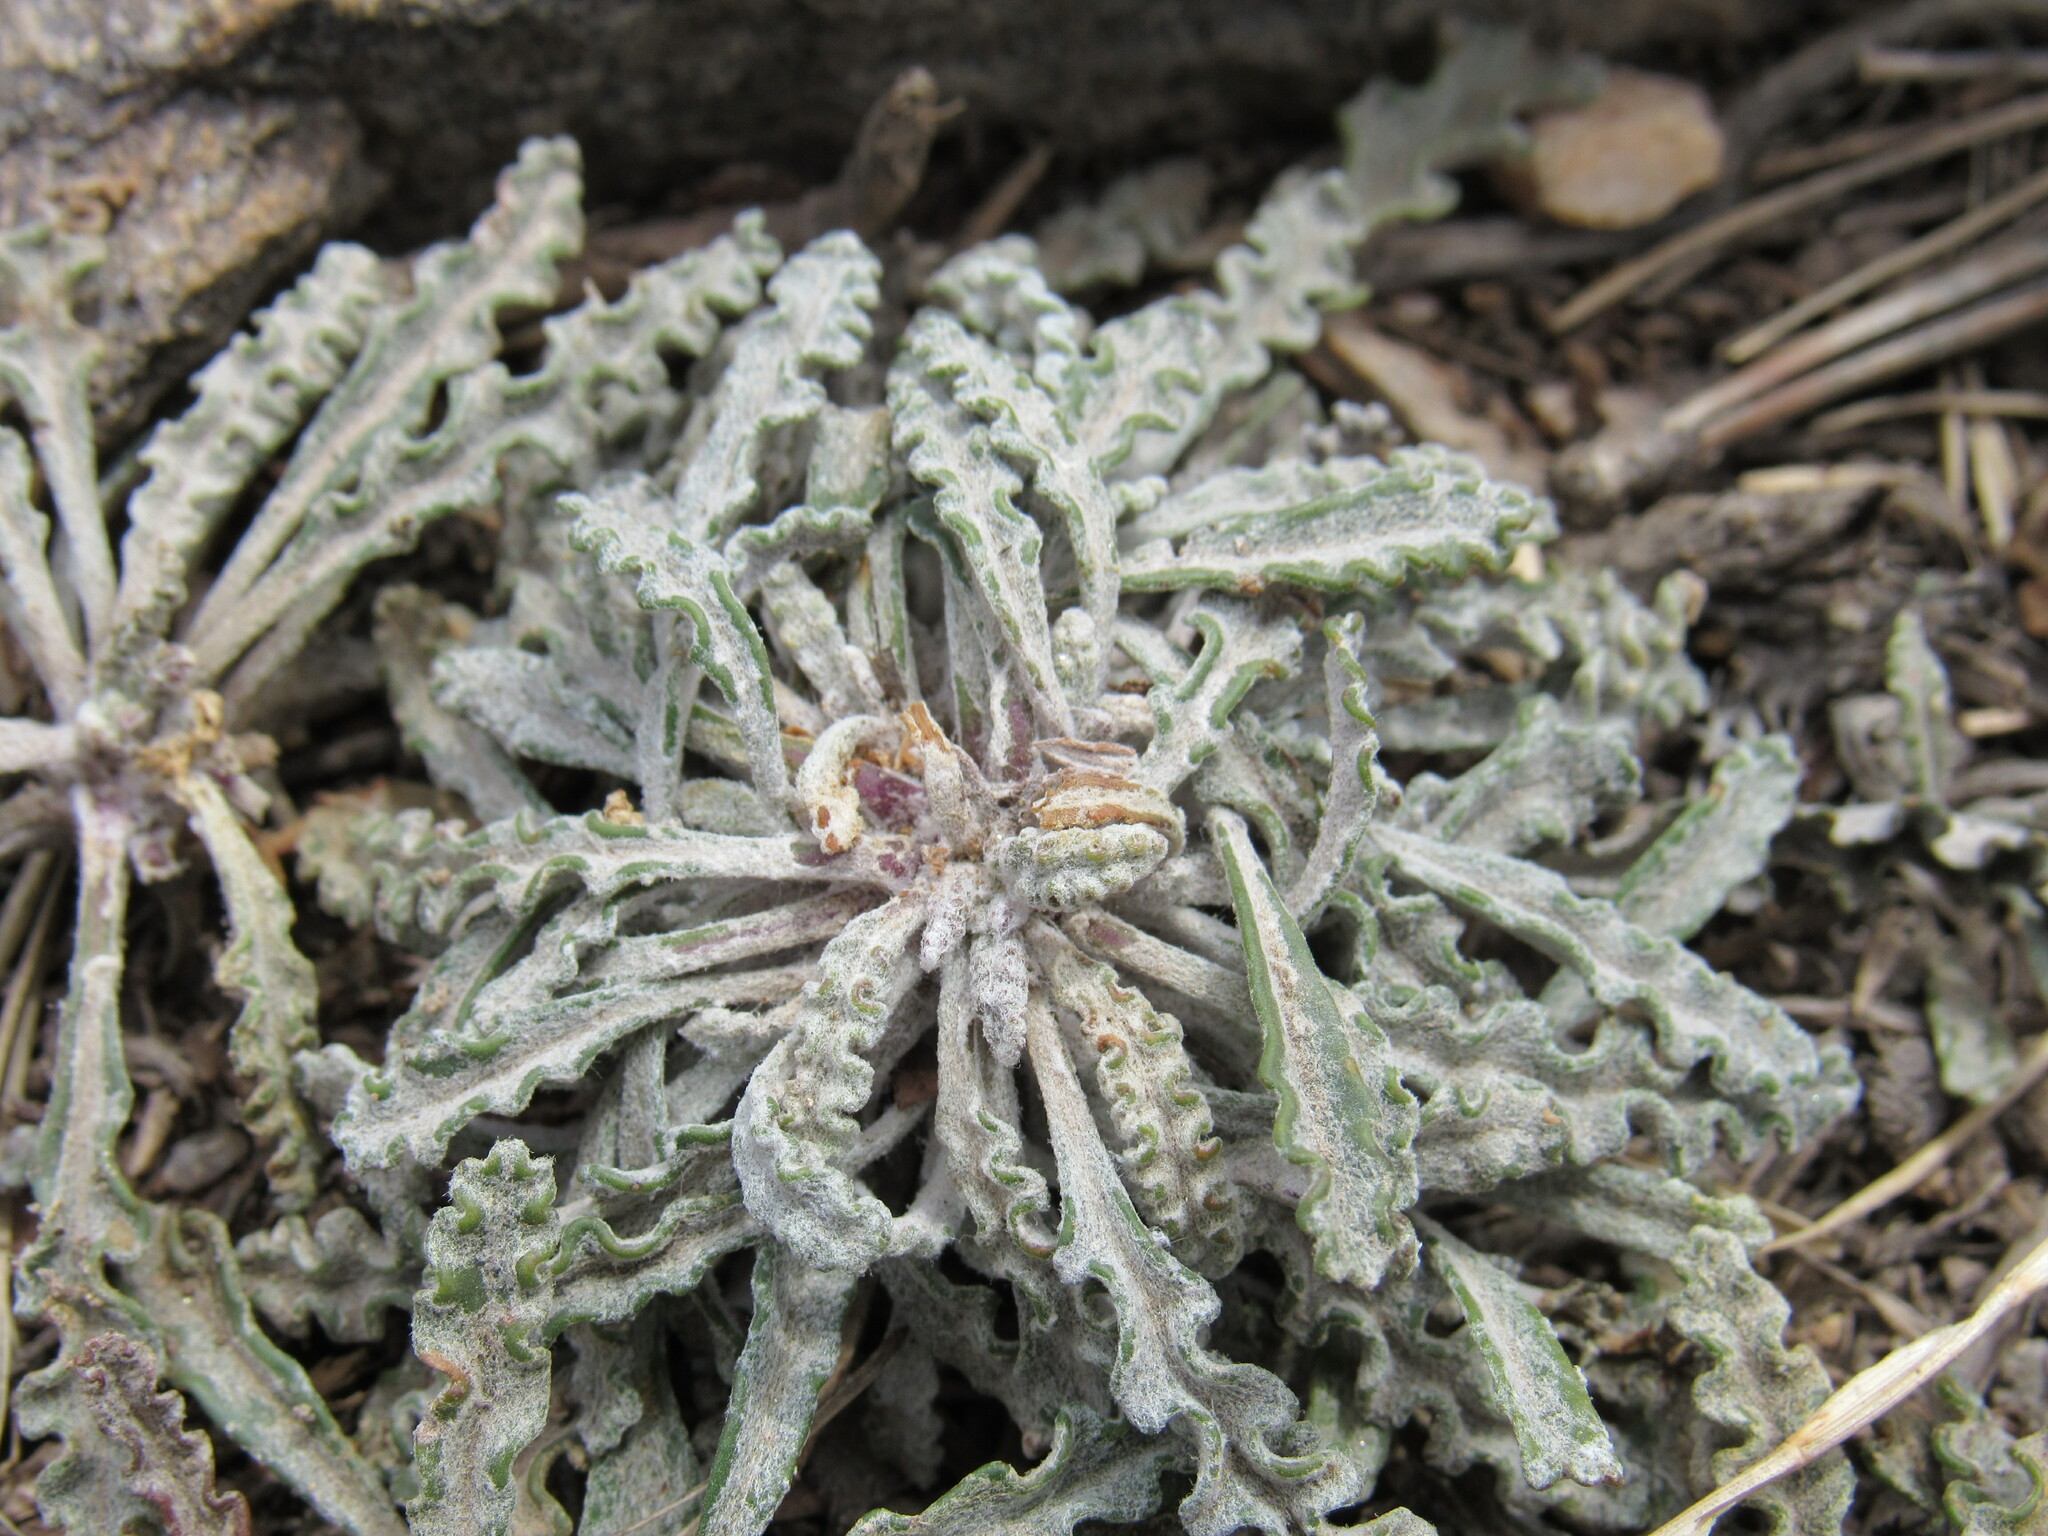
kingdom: Plantae
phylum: Tracheophyta
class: Magnoliopsida
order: Asterales
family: Asteraceae
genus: Packera
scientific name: Packera fendleri
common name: Notch-leaf butterweed
